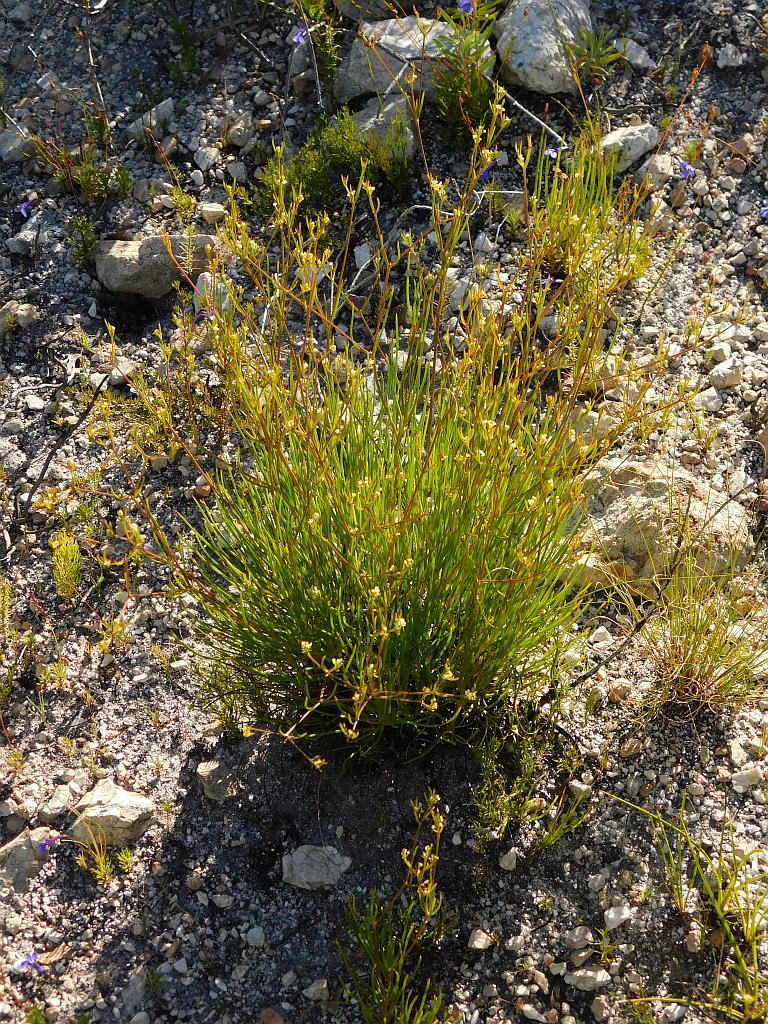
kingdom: Plantae
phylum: Tracheophyta
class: Magnoliopsida
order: Apiales
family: Apiaceae
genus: Centella
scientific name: Centella thesioides
